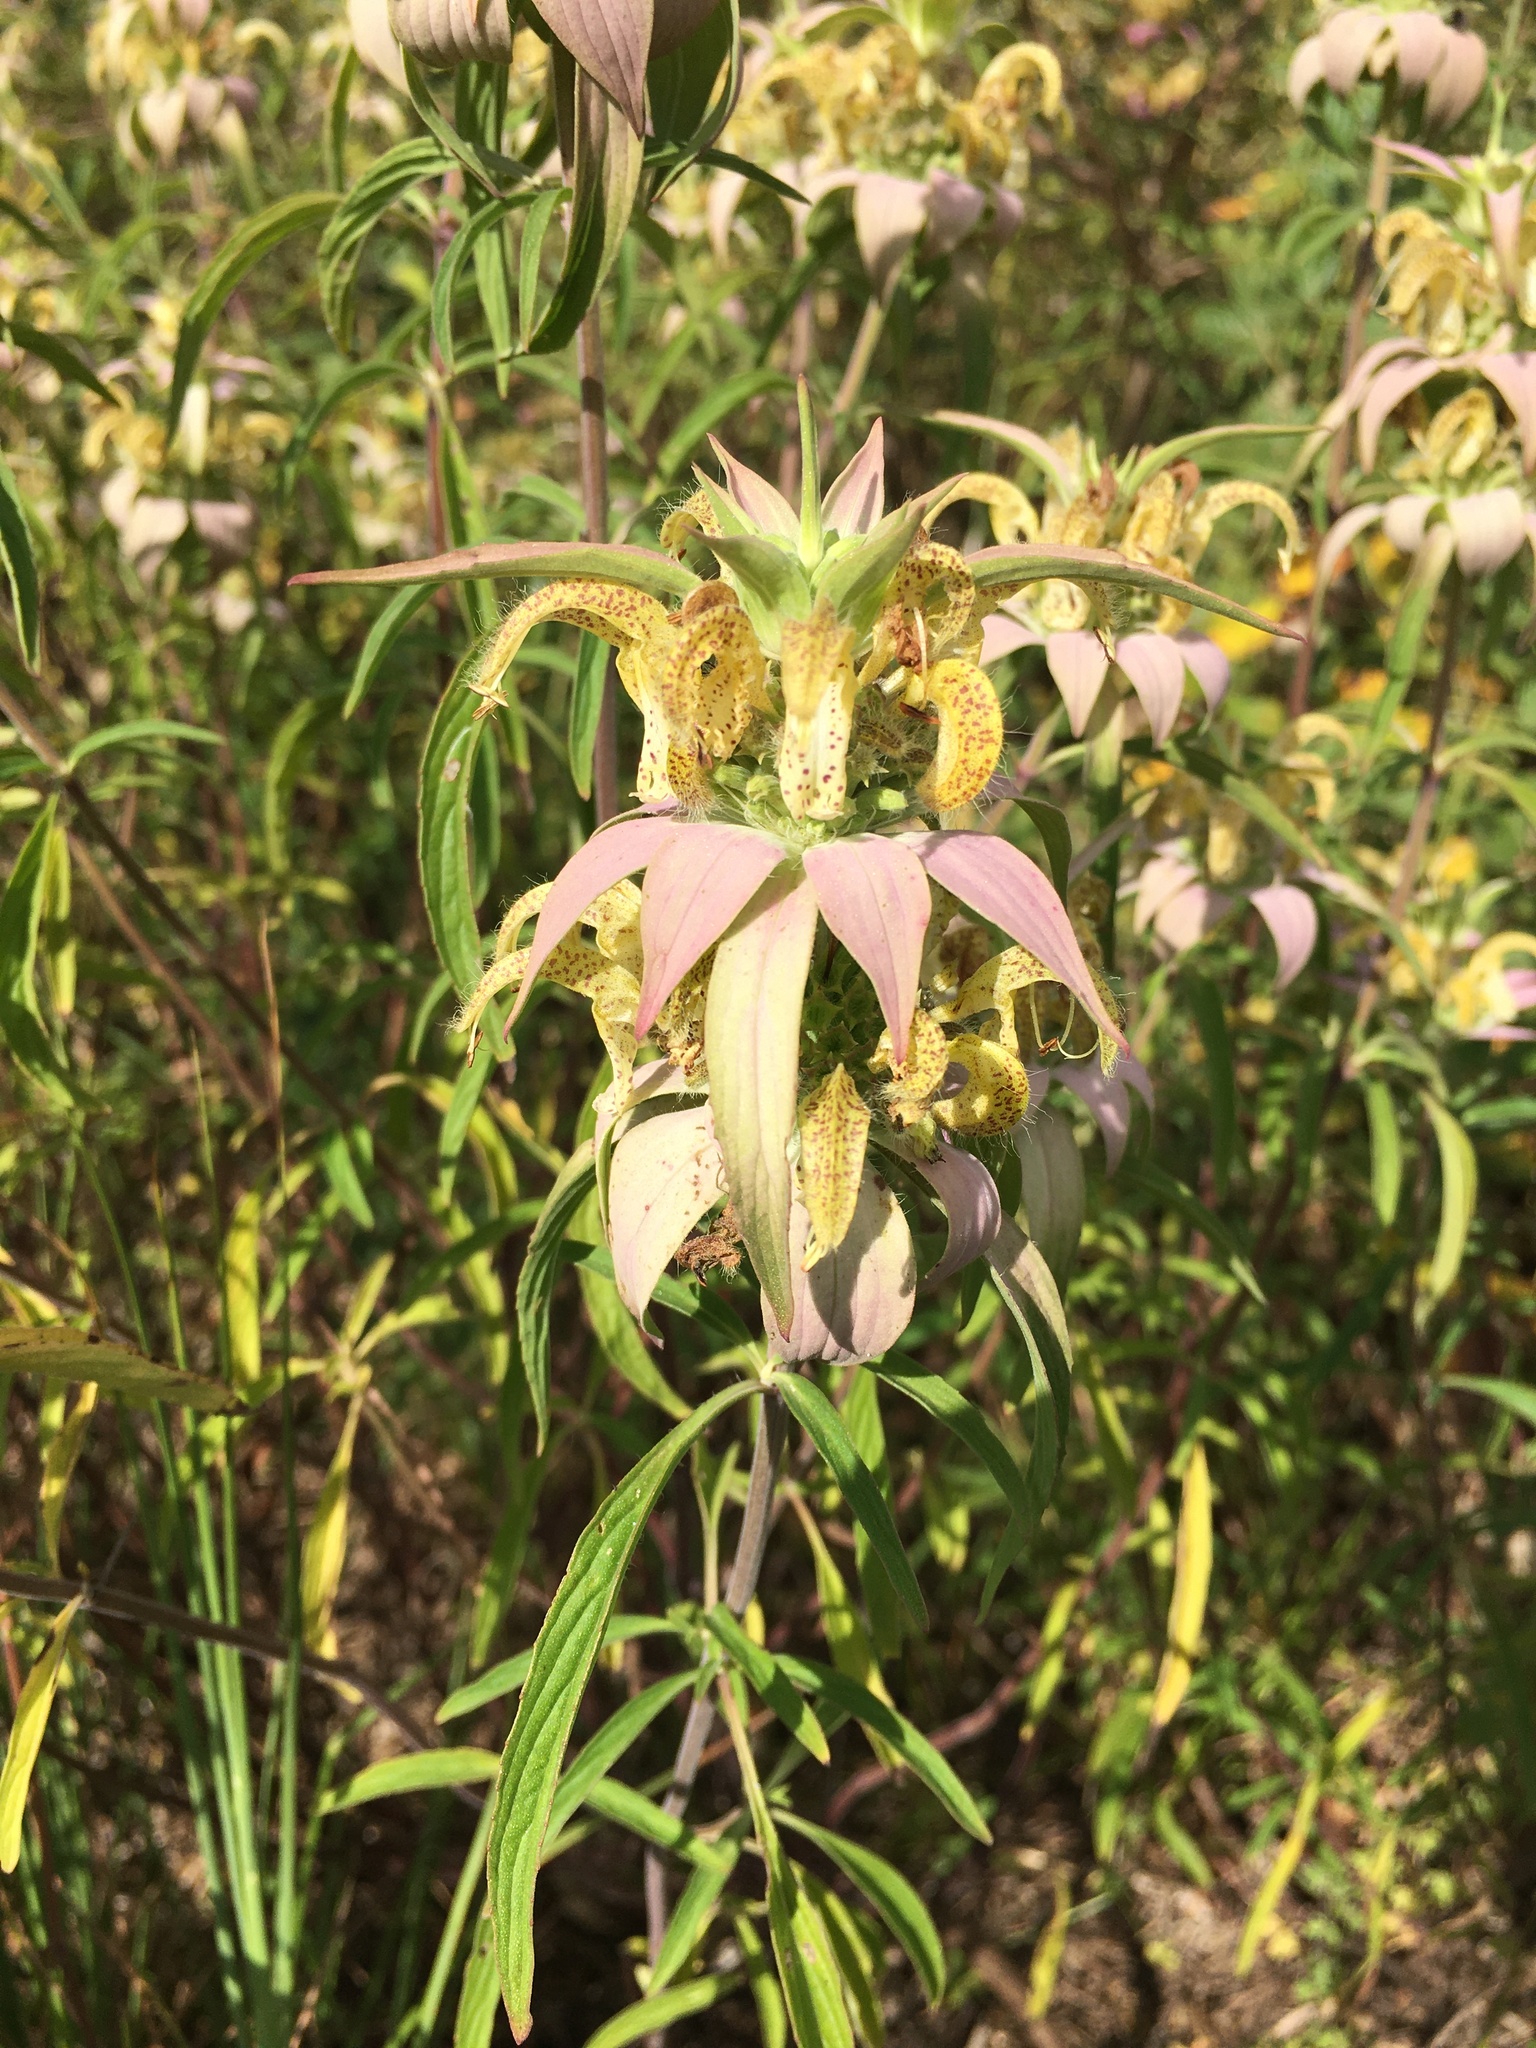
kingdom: Plantae
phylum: Tracheophyta
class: Magnoliopsida
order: Lamiales
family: Lamiaceae
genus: Monarda
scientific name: Monarda punctata
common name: Dotted monarda
